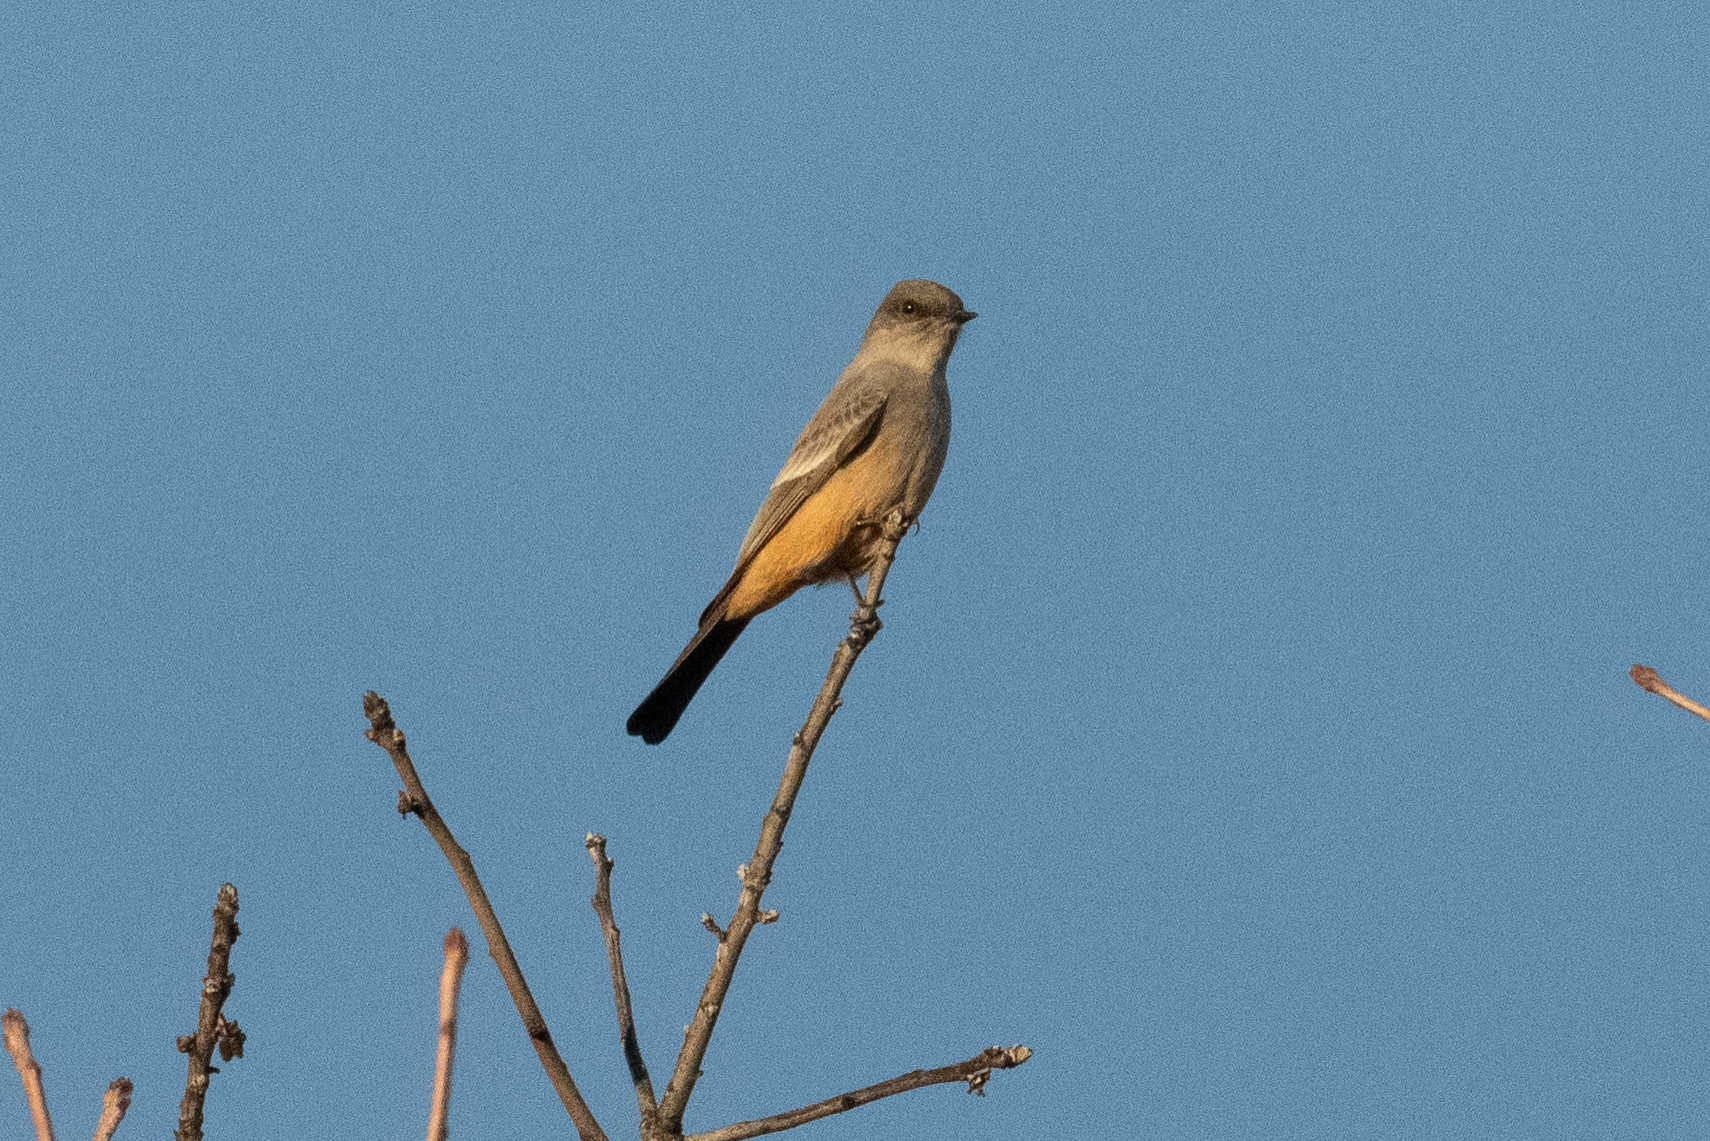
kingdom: Animalia
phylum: Chordata
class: Aves
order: Passeriformes
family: Tyrannidae
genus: Sayornis
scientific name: Sayornis saya
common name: Say's phoebe
